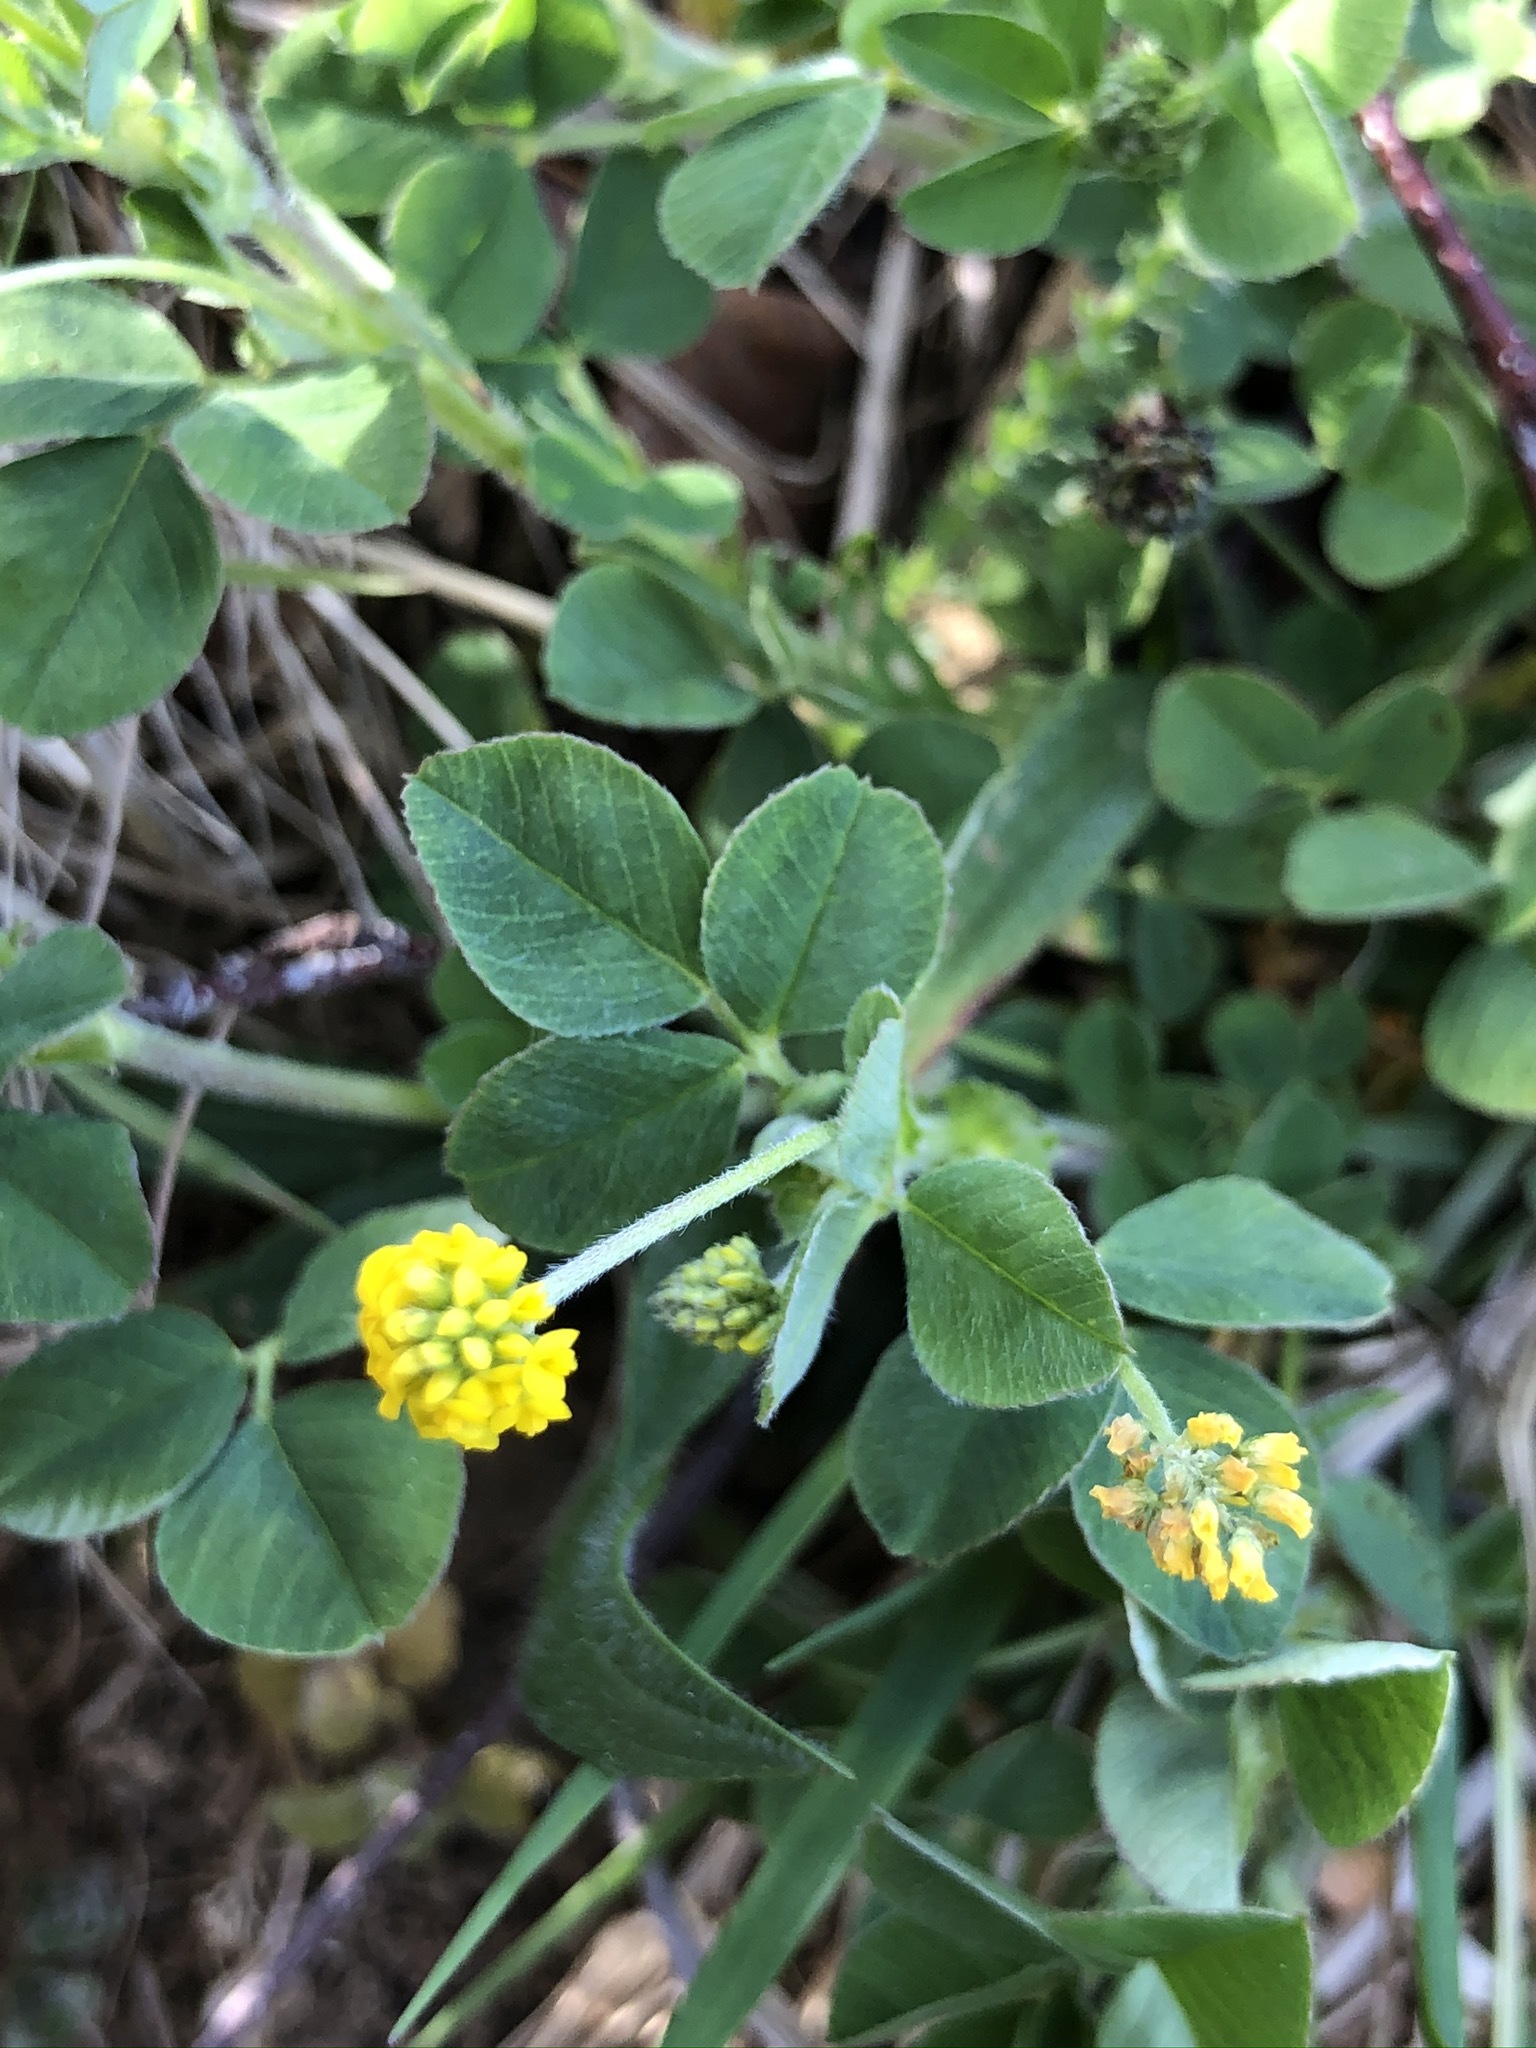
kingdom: Plantae
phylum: Tracheophyta
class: Magnoliopsida
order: Fabales
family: Fabaceae
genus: Medicago
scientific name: Medicago lupulina
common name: Black medick
